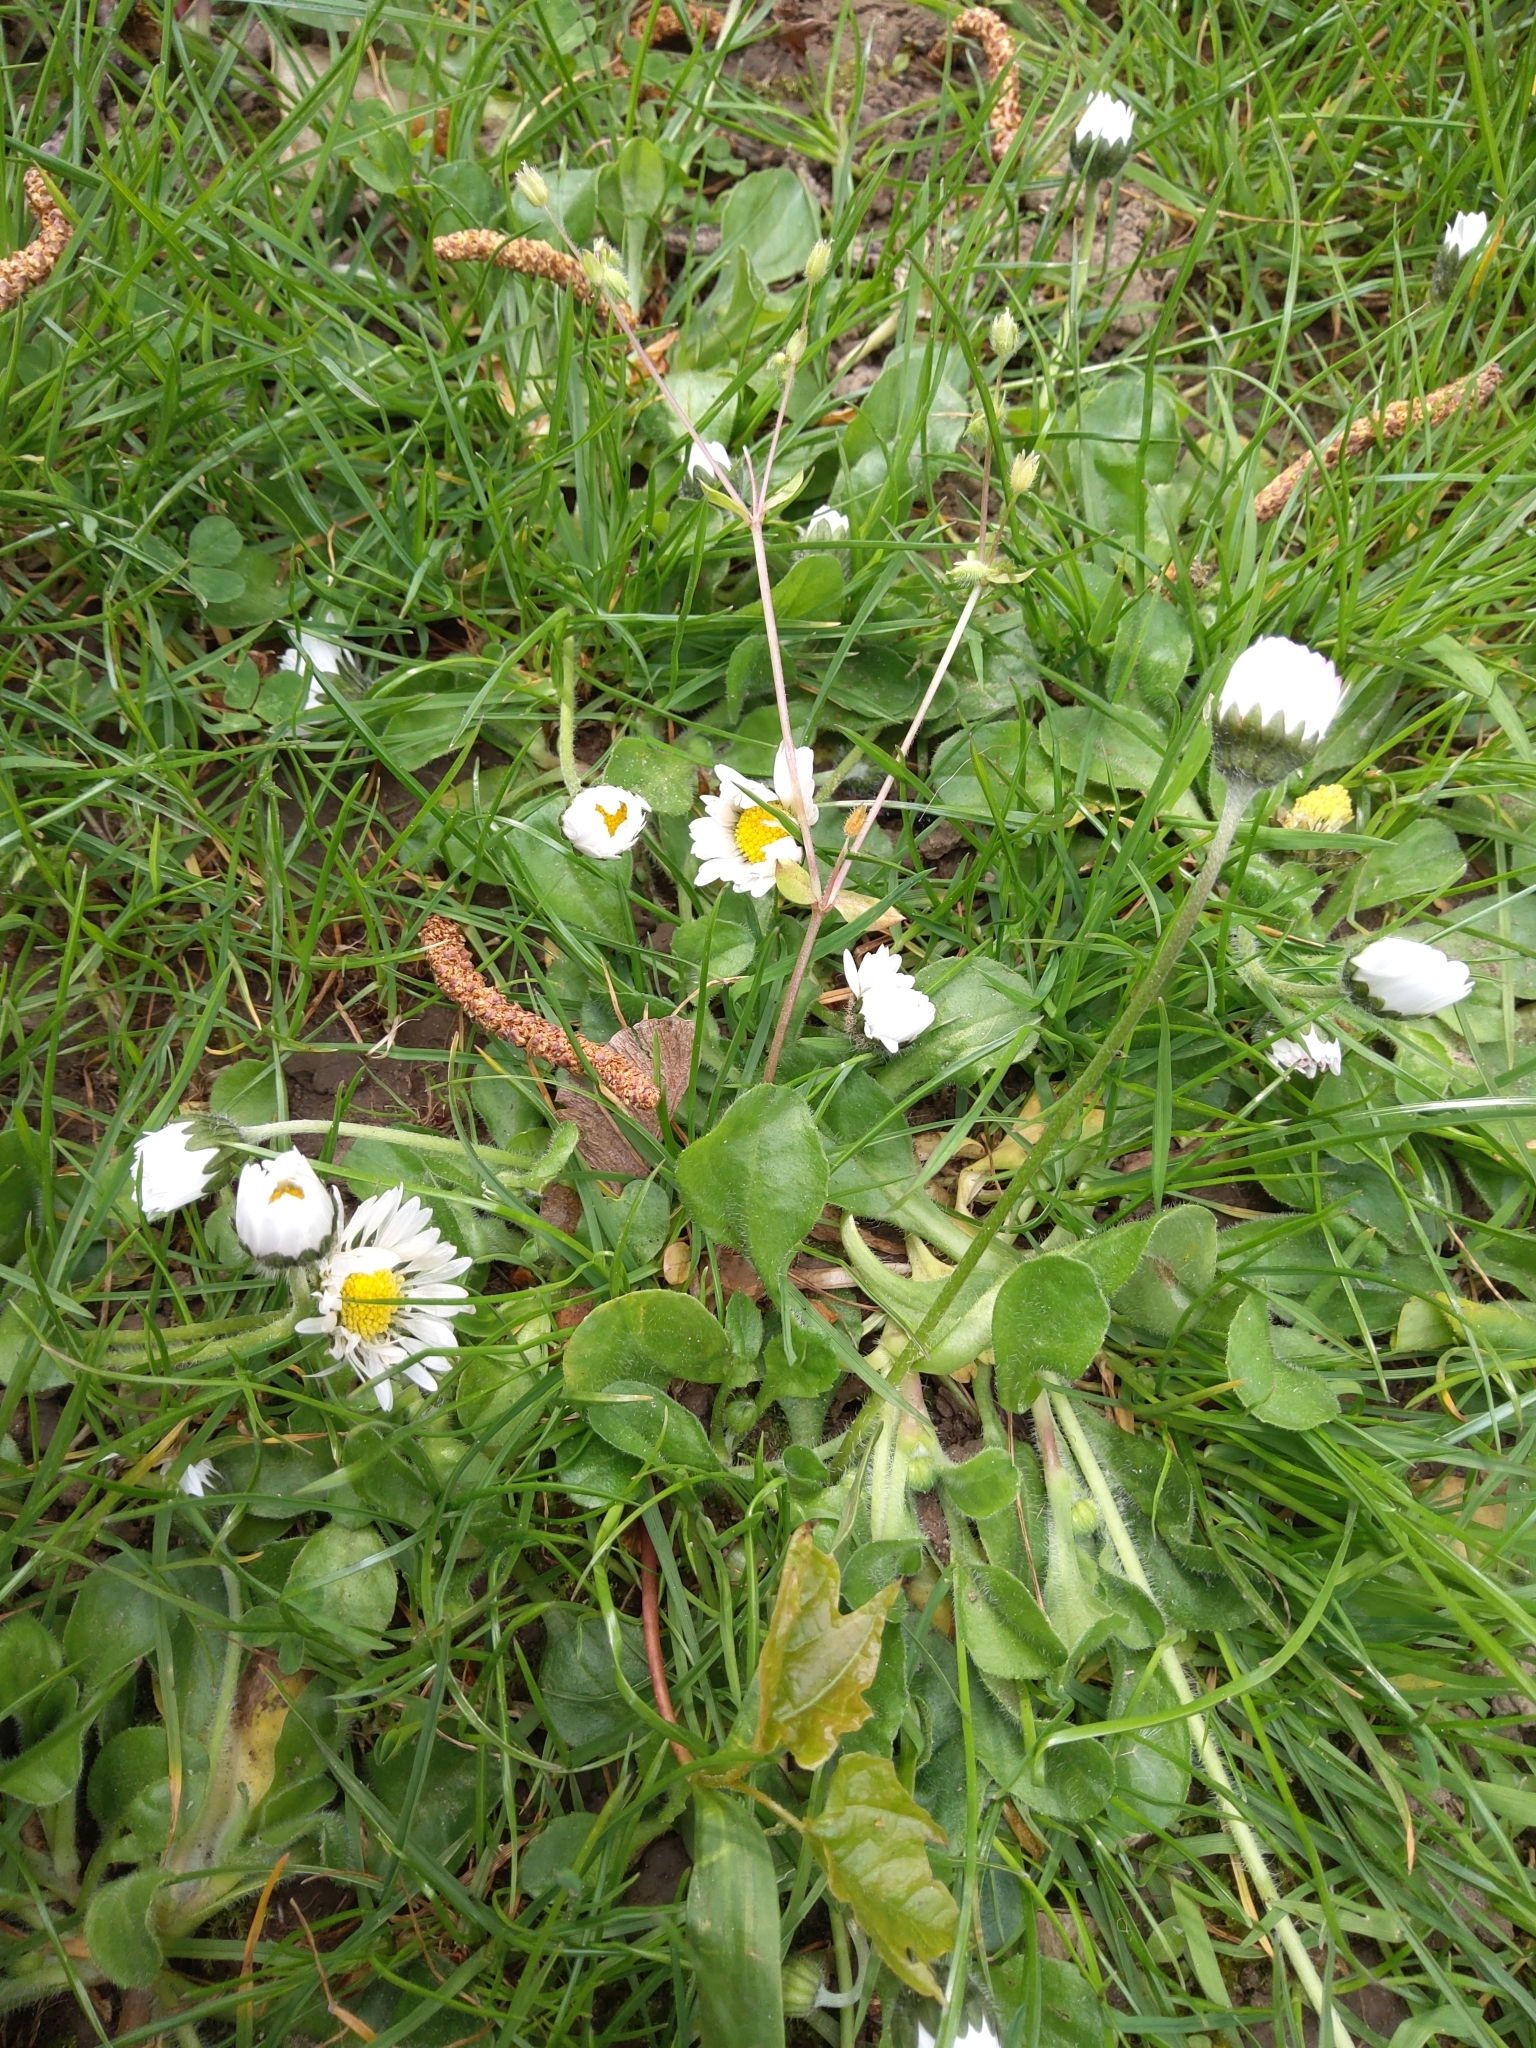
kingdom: Plantae
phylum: Tracheophyta
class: Magnoliopsida
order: Asterales
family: Asteraceae
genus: Bellis
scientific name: Bellis perennis
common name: Lawndaisy
